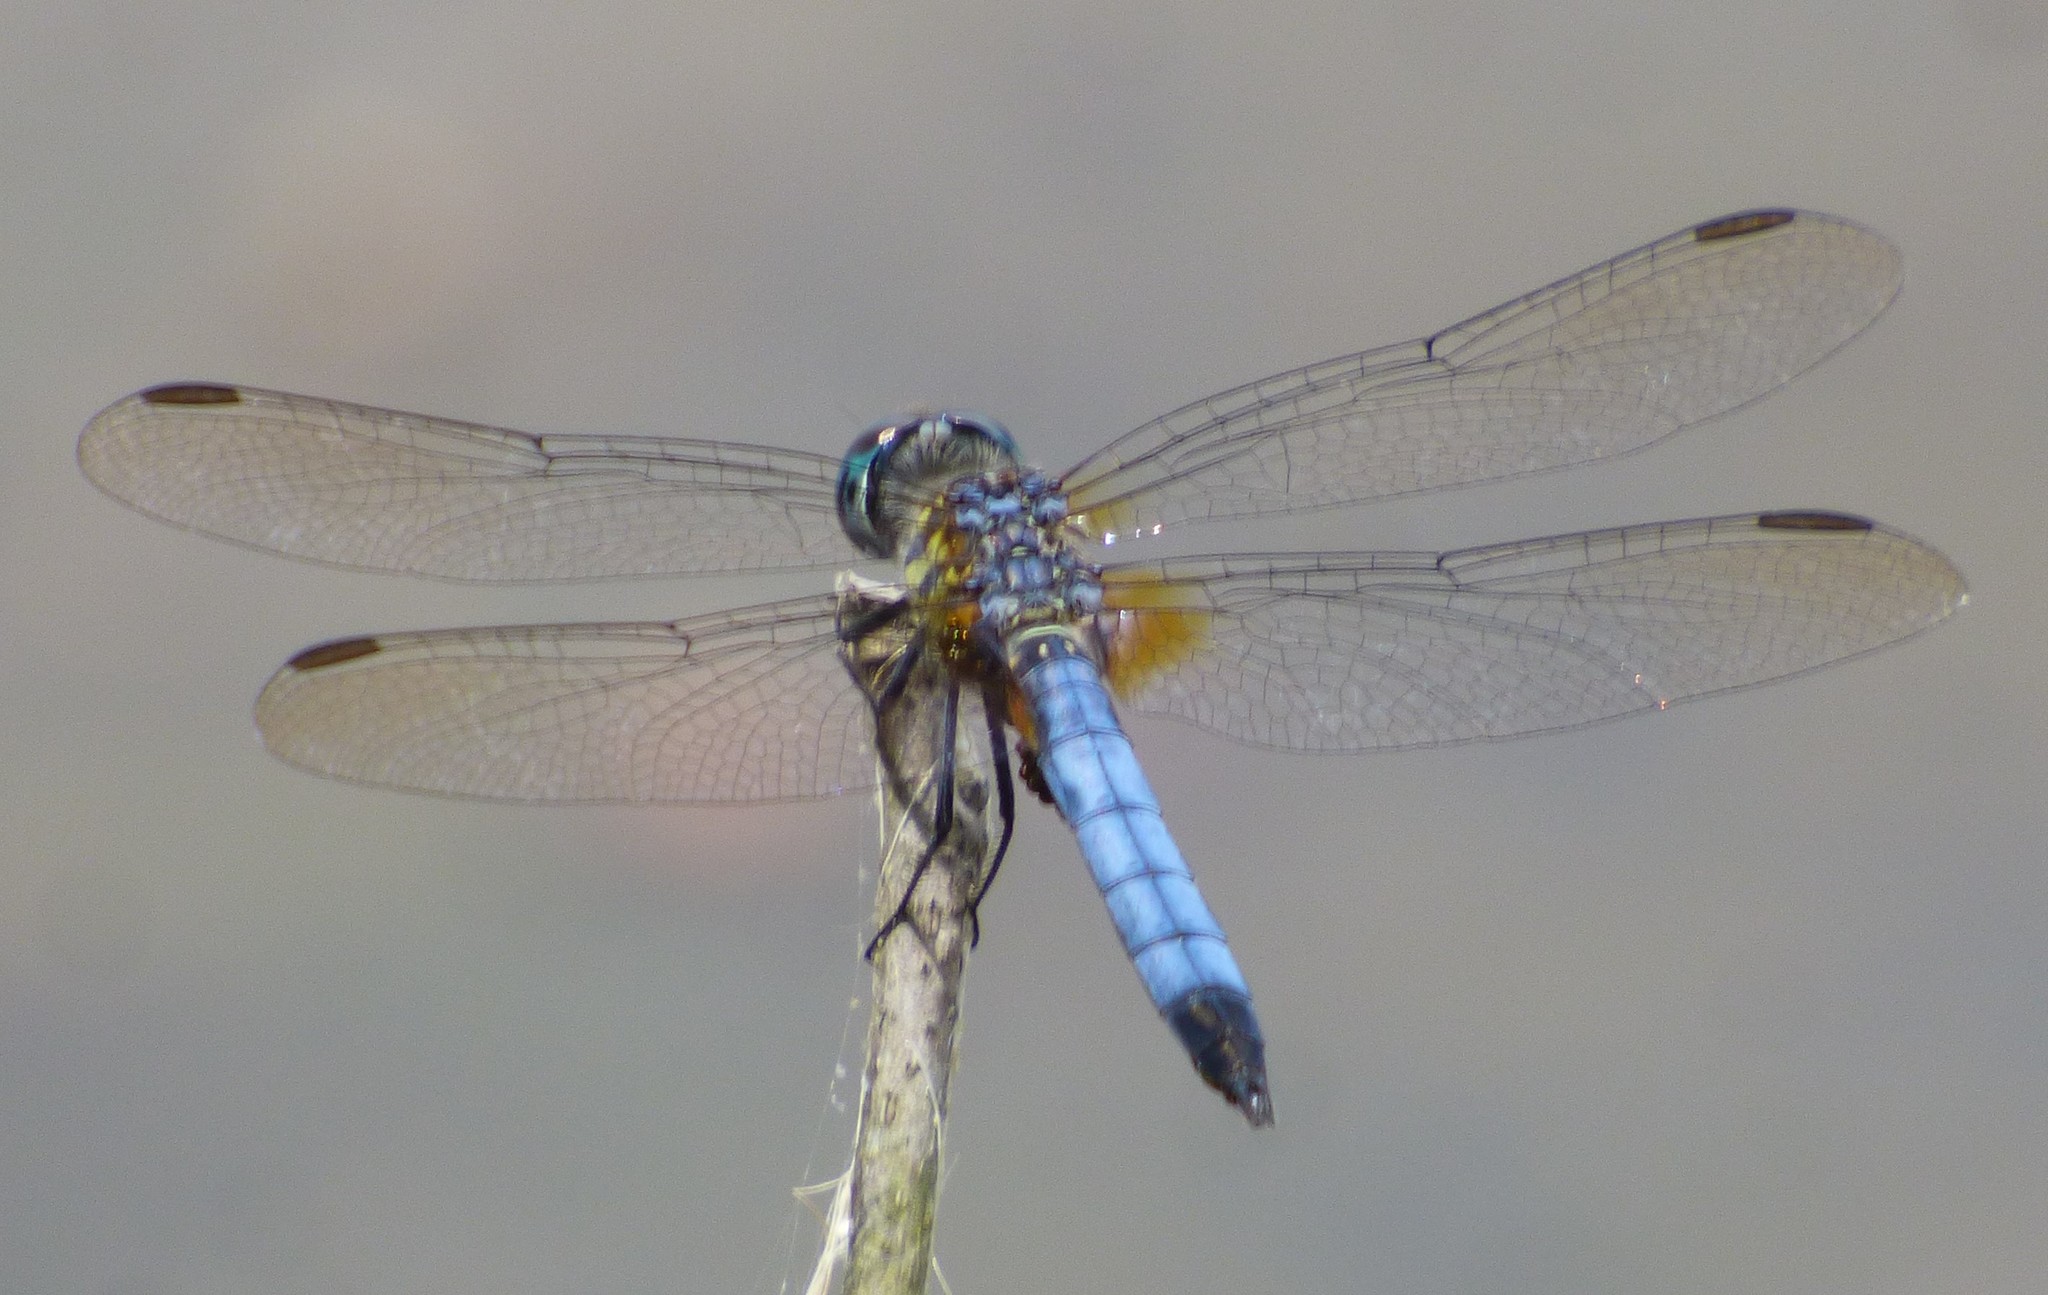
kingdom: Animalia
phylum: Arthropoda
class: Insecta
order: Odonata
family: Libellulidae
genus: Pachydiplax
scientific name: Pachydiplax longipennis
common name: Blue dasher
